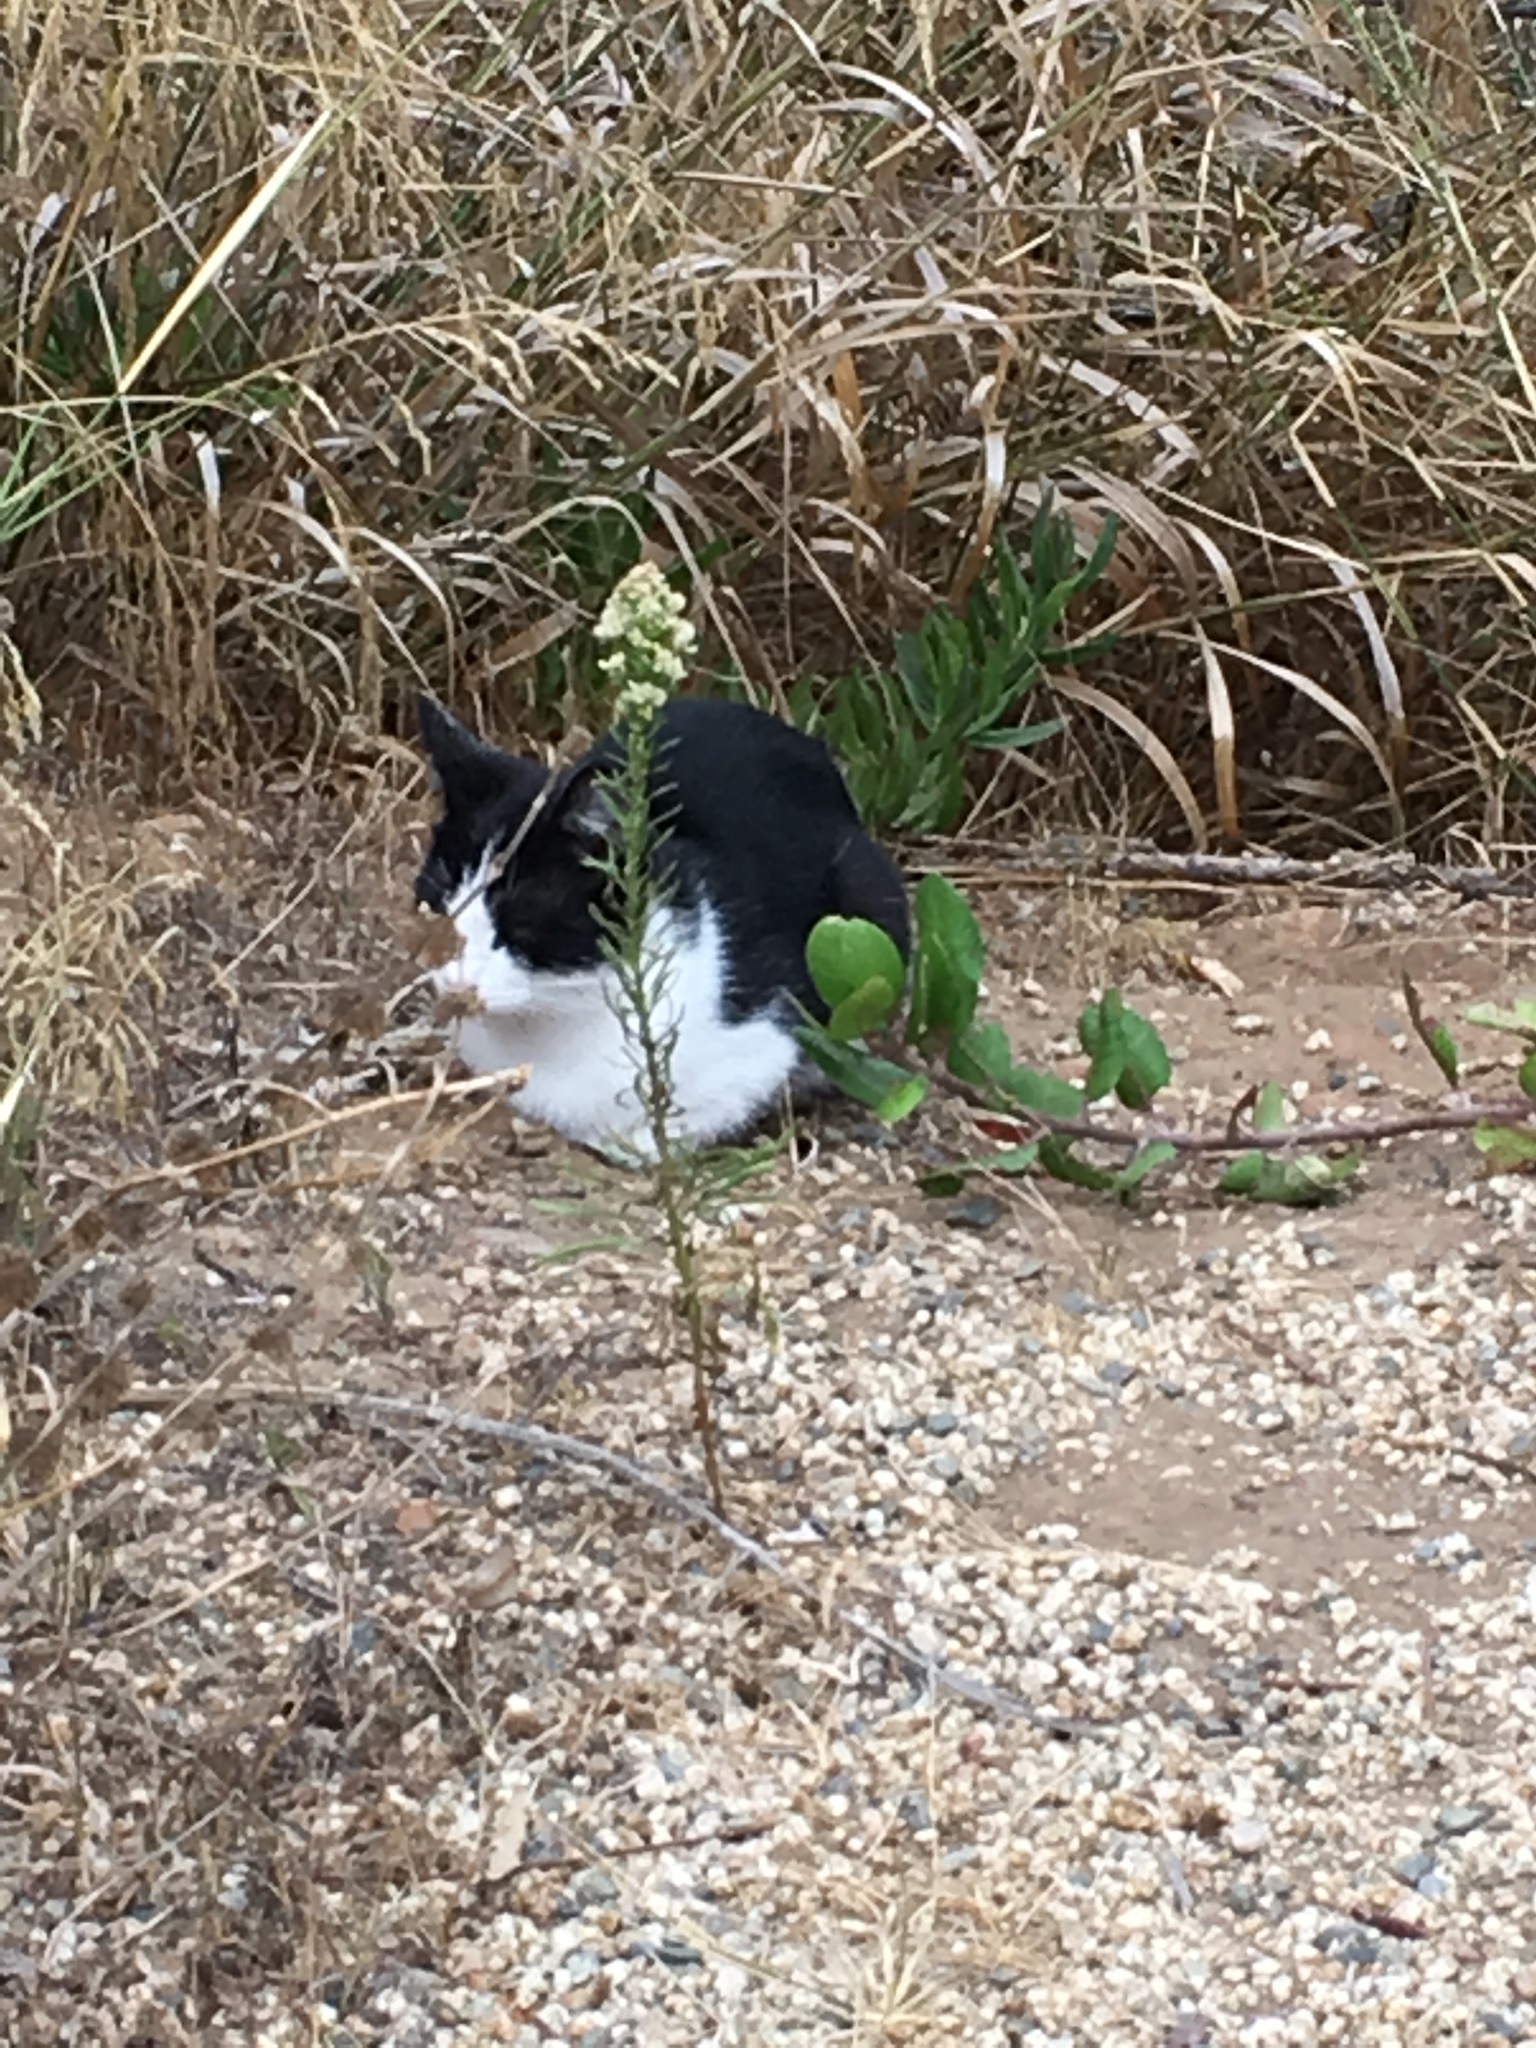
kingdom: Animalia
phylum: Chordata
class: Mammalia
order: Carnivora
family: Felidae
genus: Felis
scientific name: Felis catus
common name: Domestic cat
